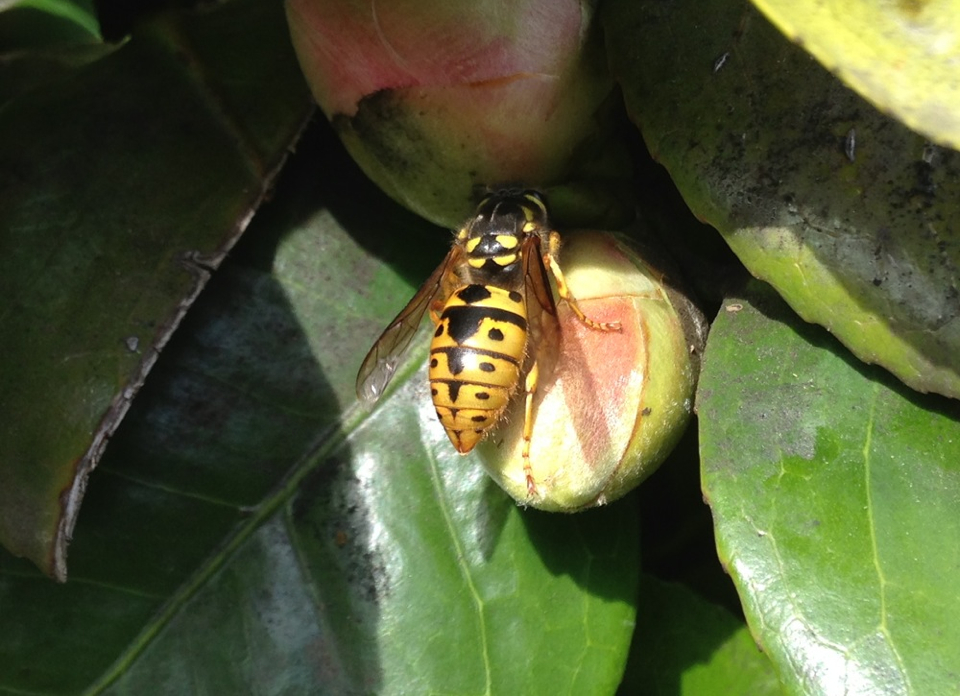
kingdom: Animalia
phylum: Arthropoda
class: Insecta
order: Hymenoptera
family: Vespidae
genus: Vespula
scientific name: Vespula germanica
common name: German wasp
